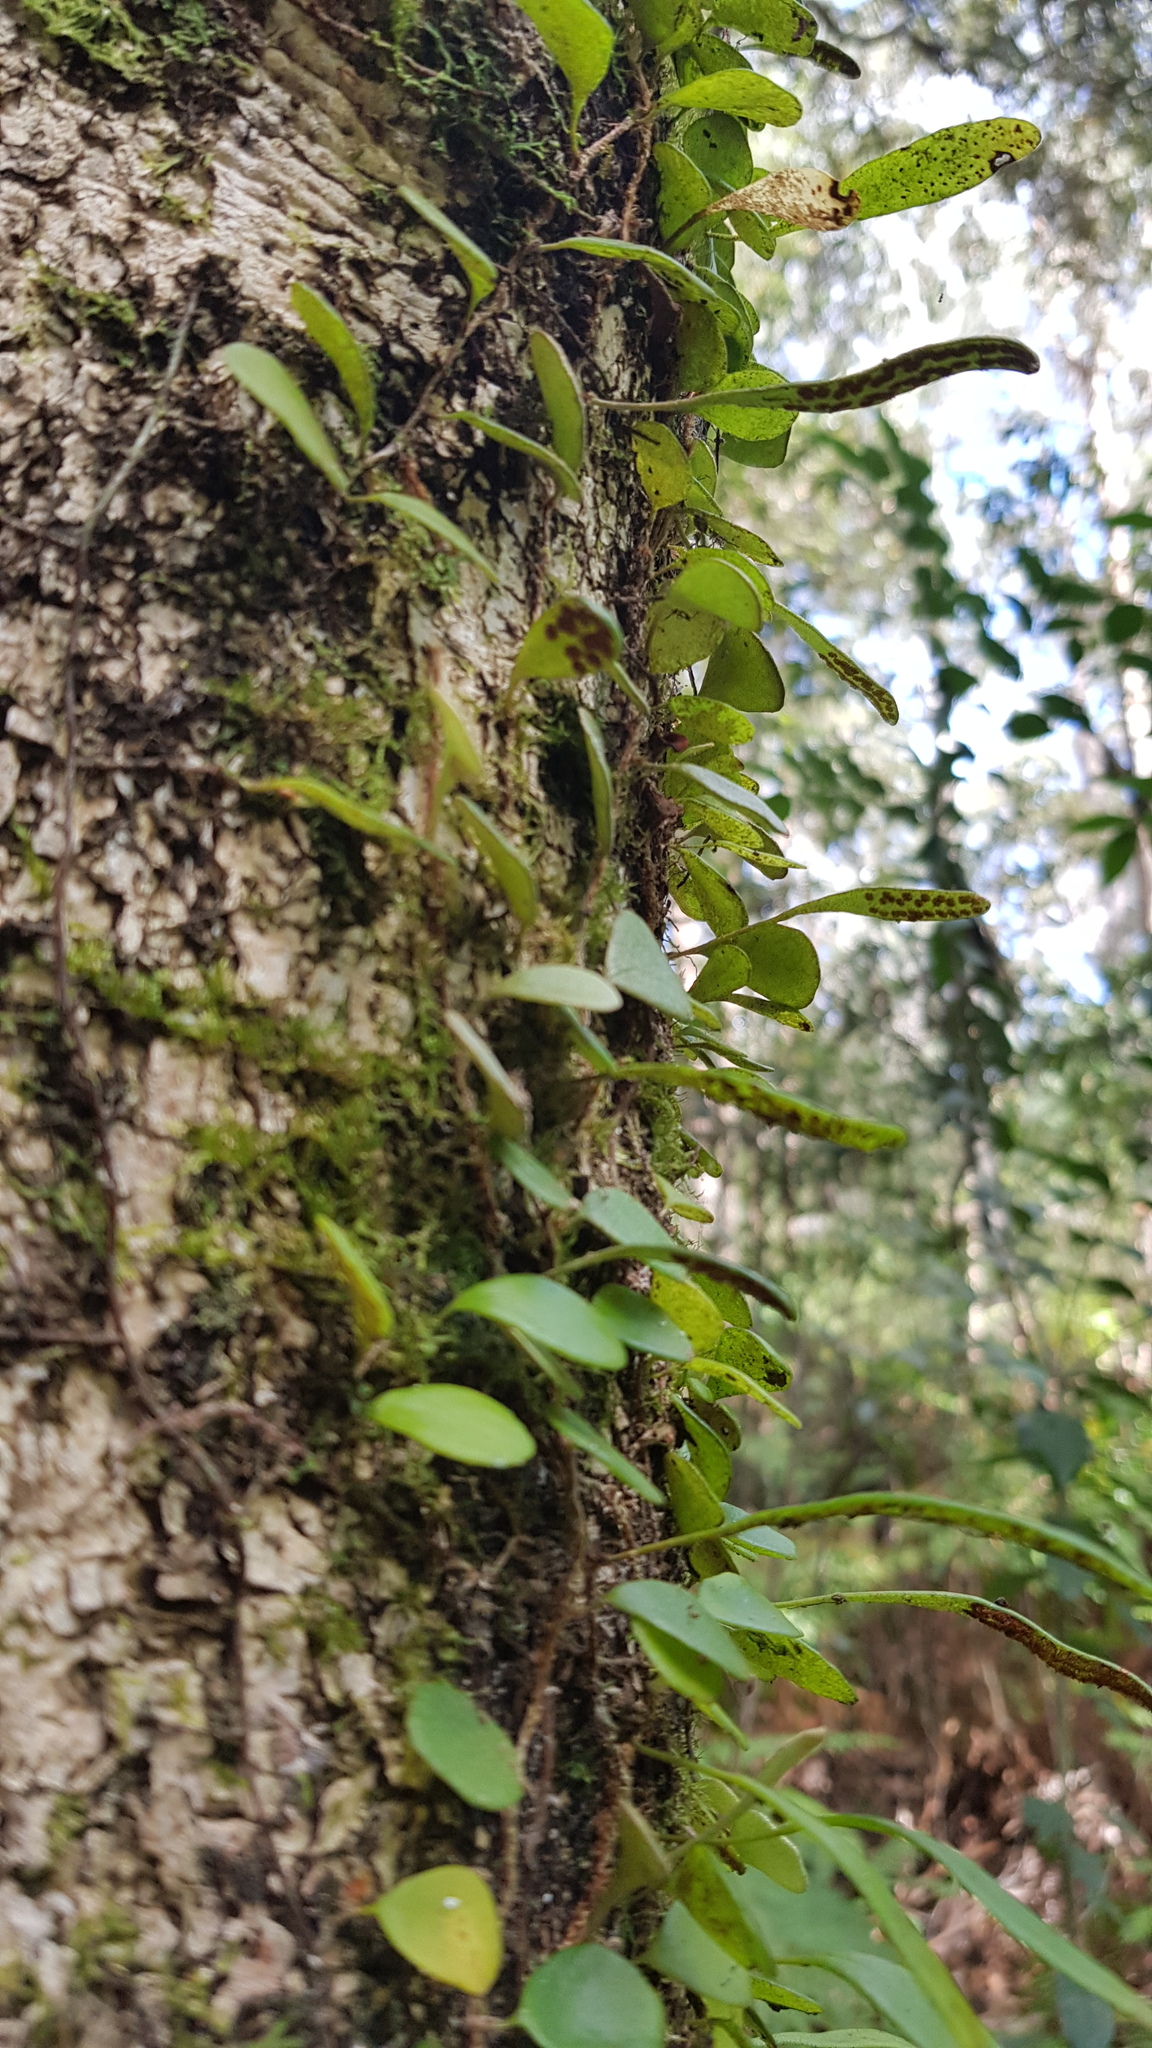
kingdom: Plantae
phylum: Tracheophyta
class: Polypodiopsida
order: Polypodiales
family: Polypodiaceae
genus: Pyrrosia
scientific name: Pyrrosia rupestris
